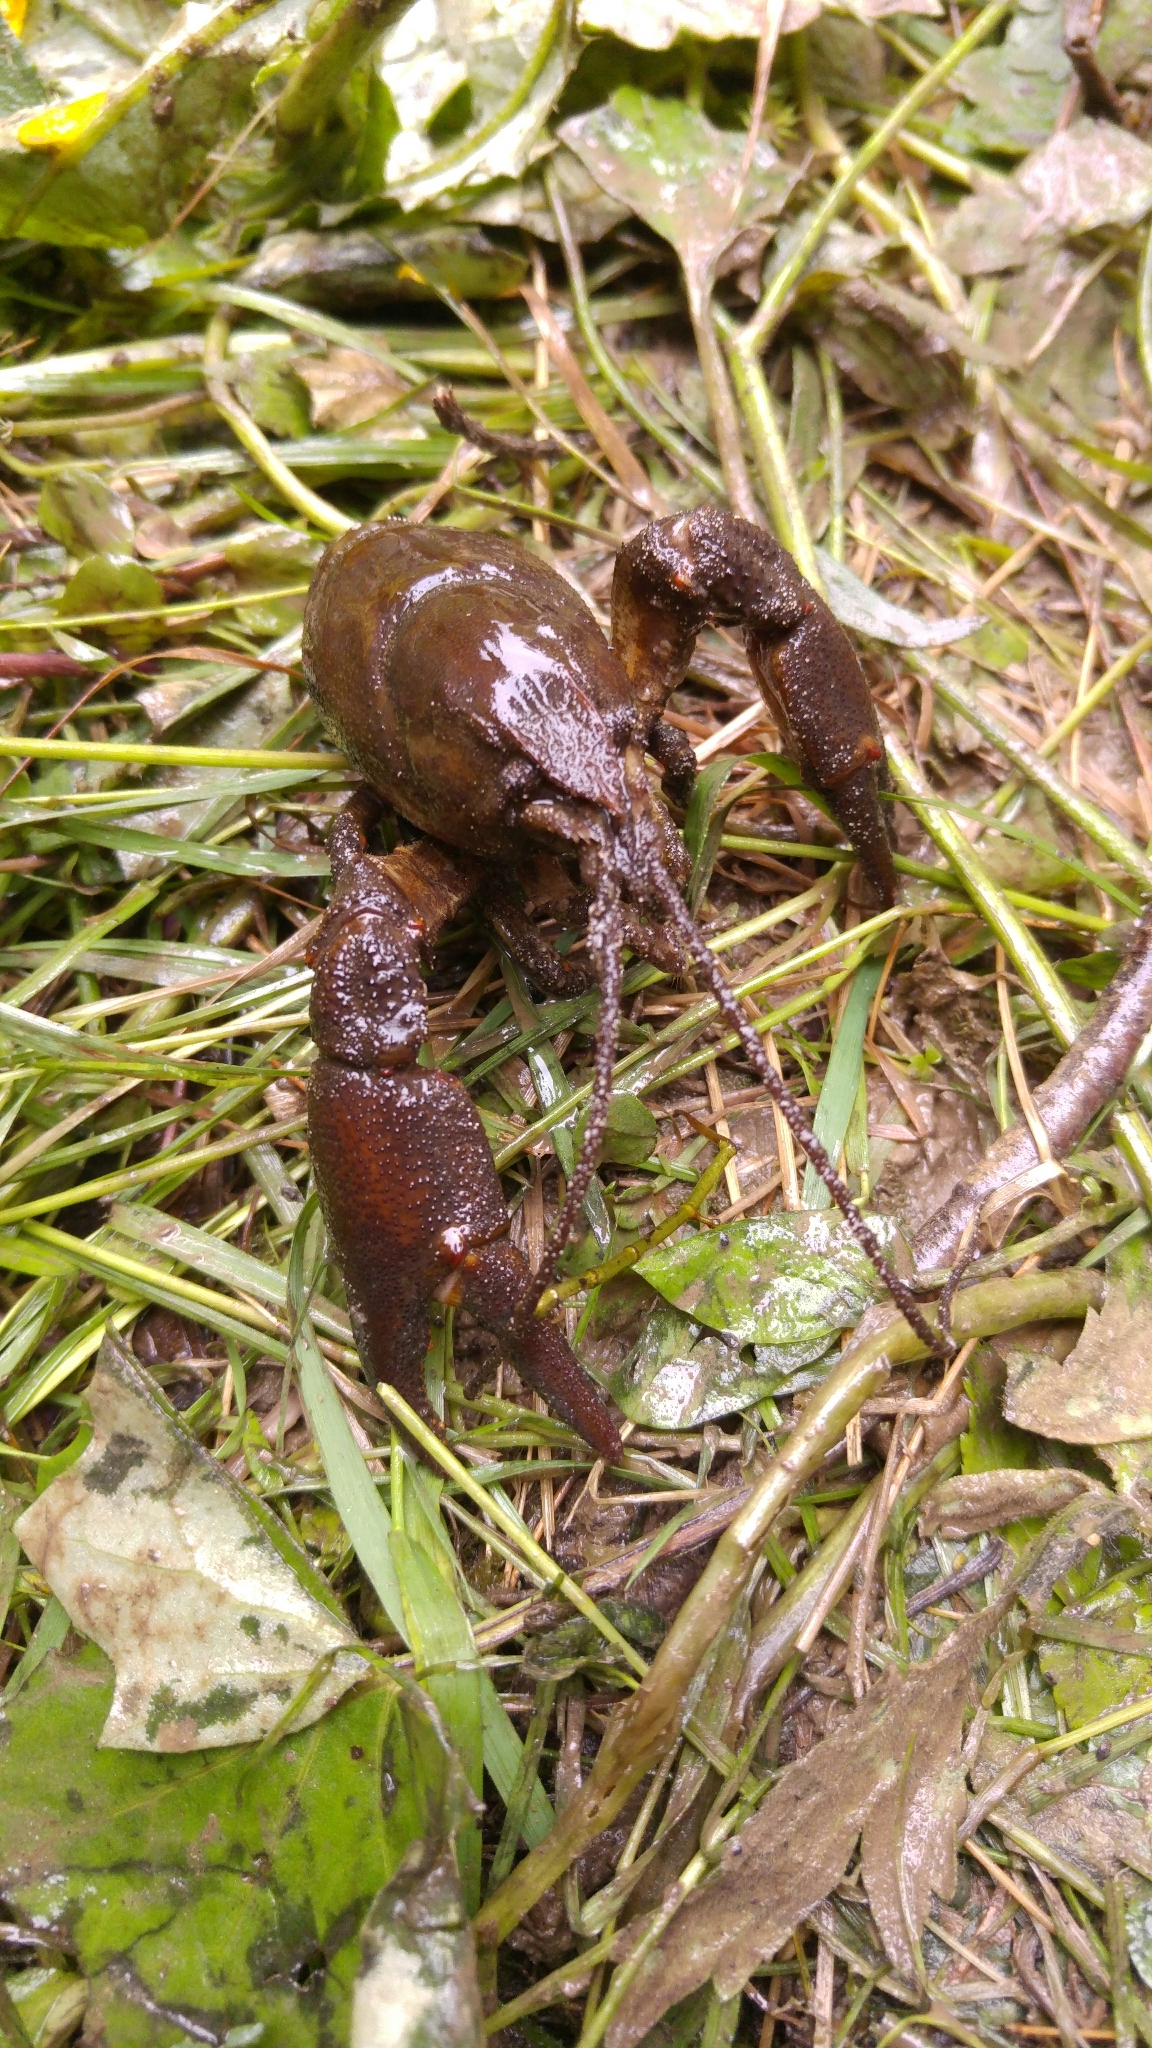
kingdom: Animalia
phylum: Arthropoda
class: Malacostraca
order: Decapoda
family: Astacidae
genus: Austropotamobius
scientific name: Austropotamobius pallipes
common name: White-clawed crayfish
